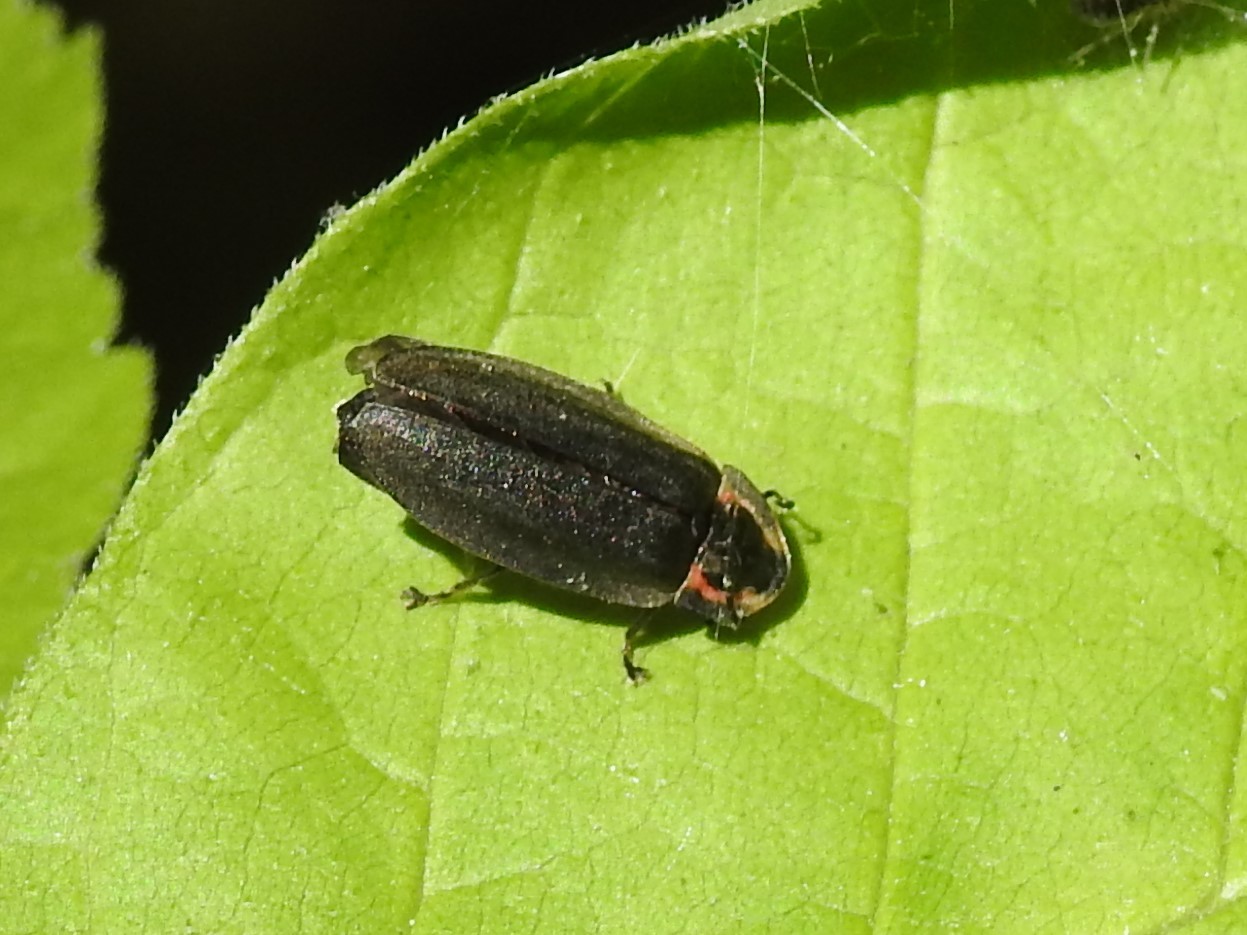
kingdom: Animalia
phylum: Arthropoda
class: Insecta
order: Coleoptera
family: Lampyridae
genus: Photinus
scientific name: Photinus corrusca
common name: Winter firefly
